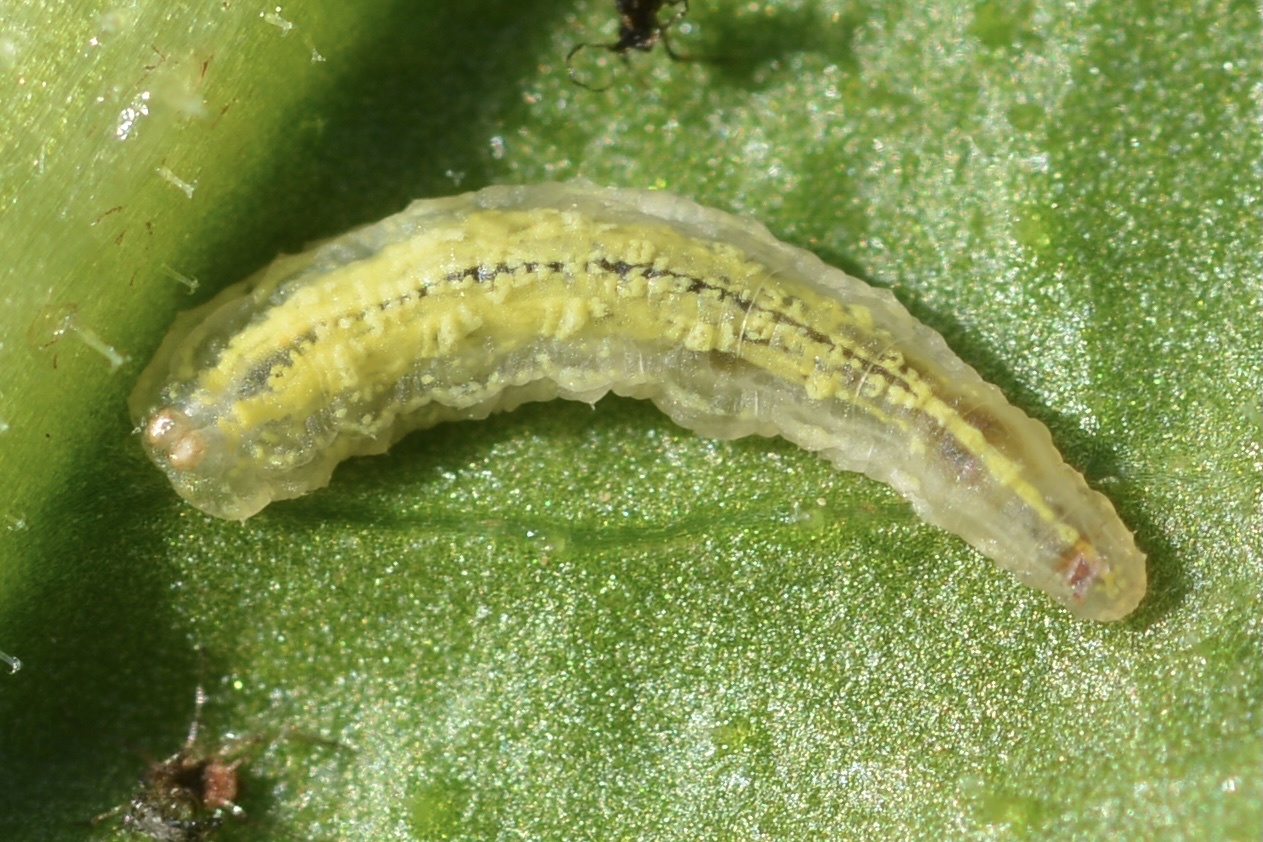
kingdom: Animalia
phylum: Arthropoda
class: Insecta
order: Diptera
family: Syrphidae
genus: Syrphus
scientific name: Syrphus
